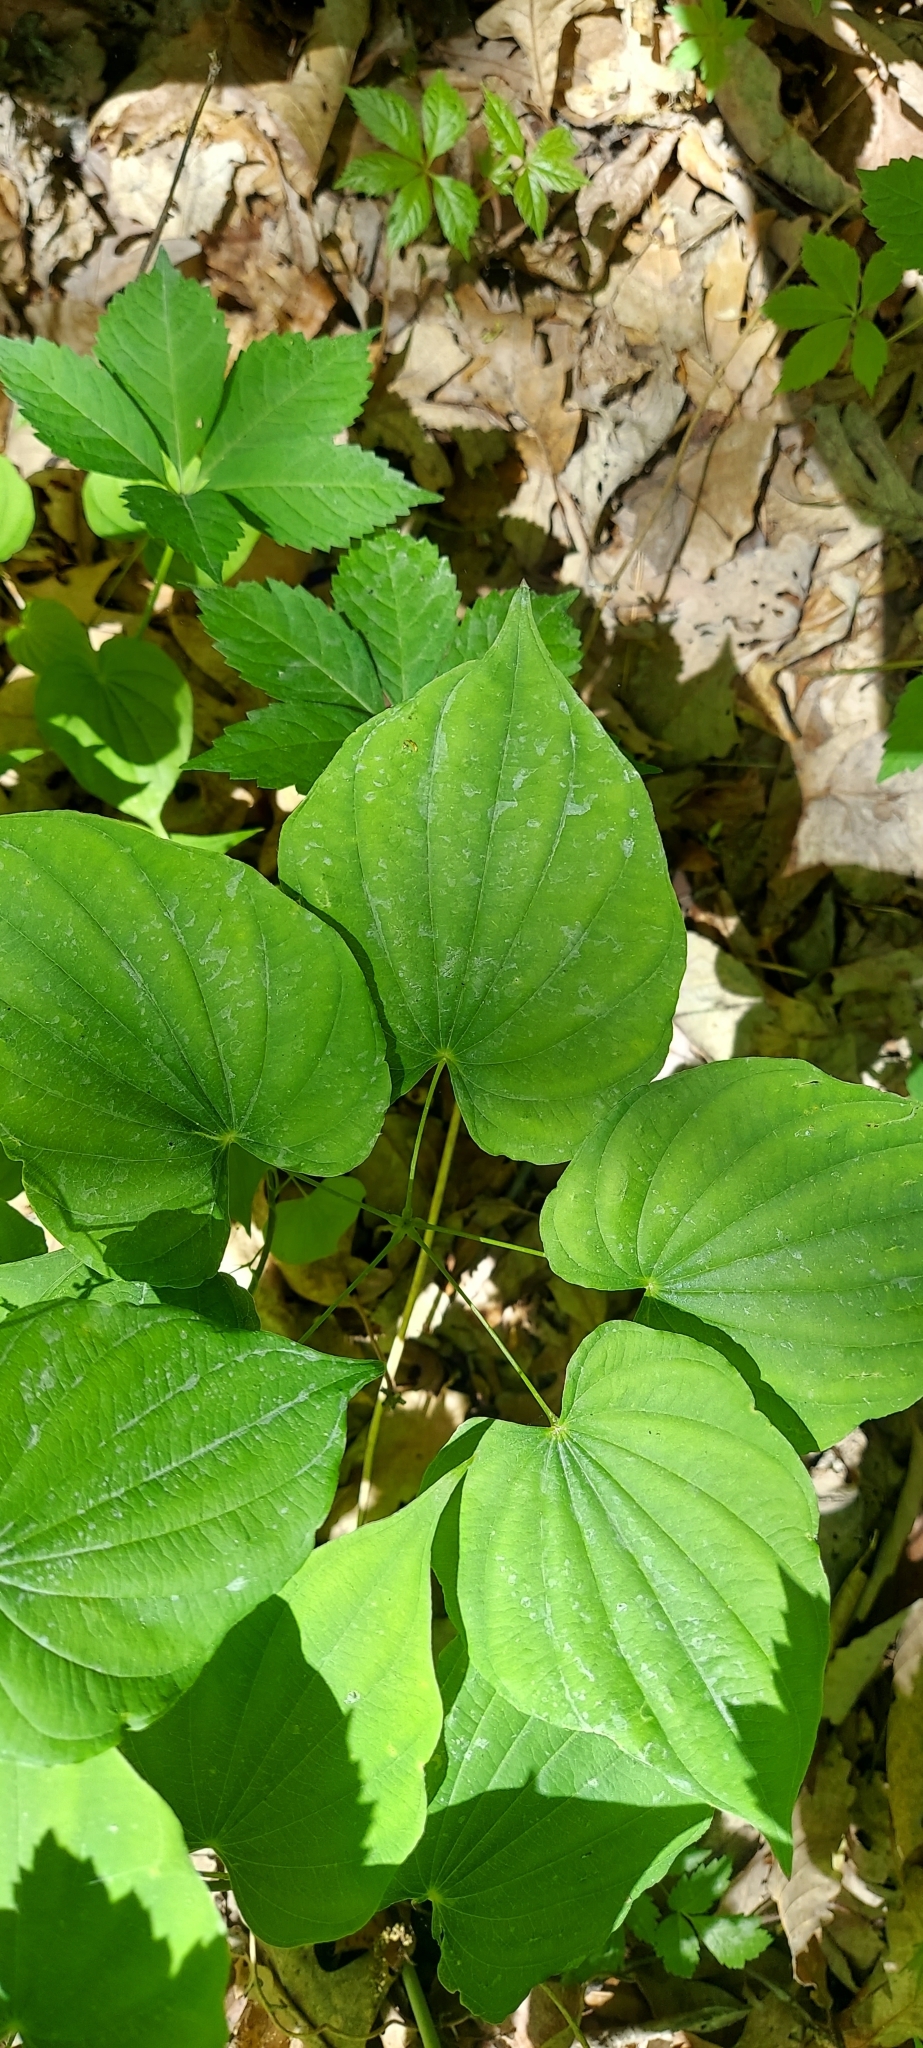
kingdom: Plantae
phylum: Tracheophyta
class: Liliopsida
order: Dioscoreales
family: Dioscoreaceae
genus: Dioscorea
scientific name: Dioscorea villosa
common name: Wild yam
